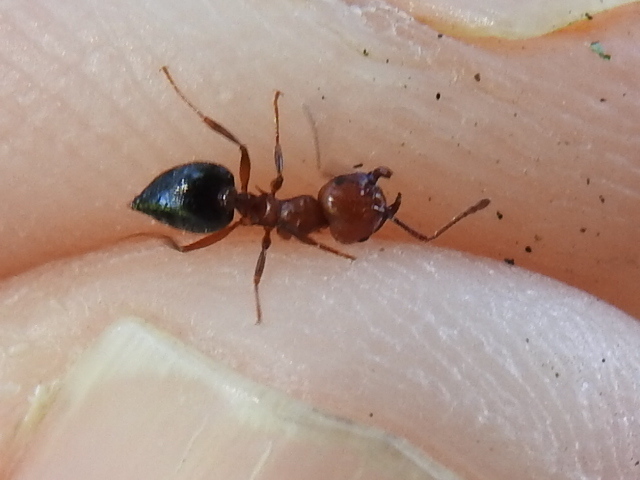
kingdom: Animalia
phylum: Arthropoda
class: Insecta
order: Hymenoptera
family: Formicidae
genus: Crematogaster
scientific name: Crematogaster laeviuscula
